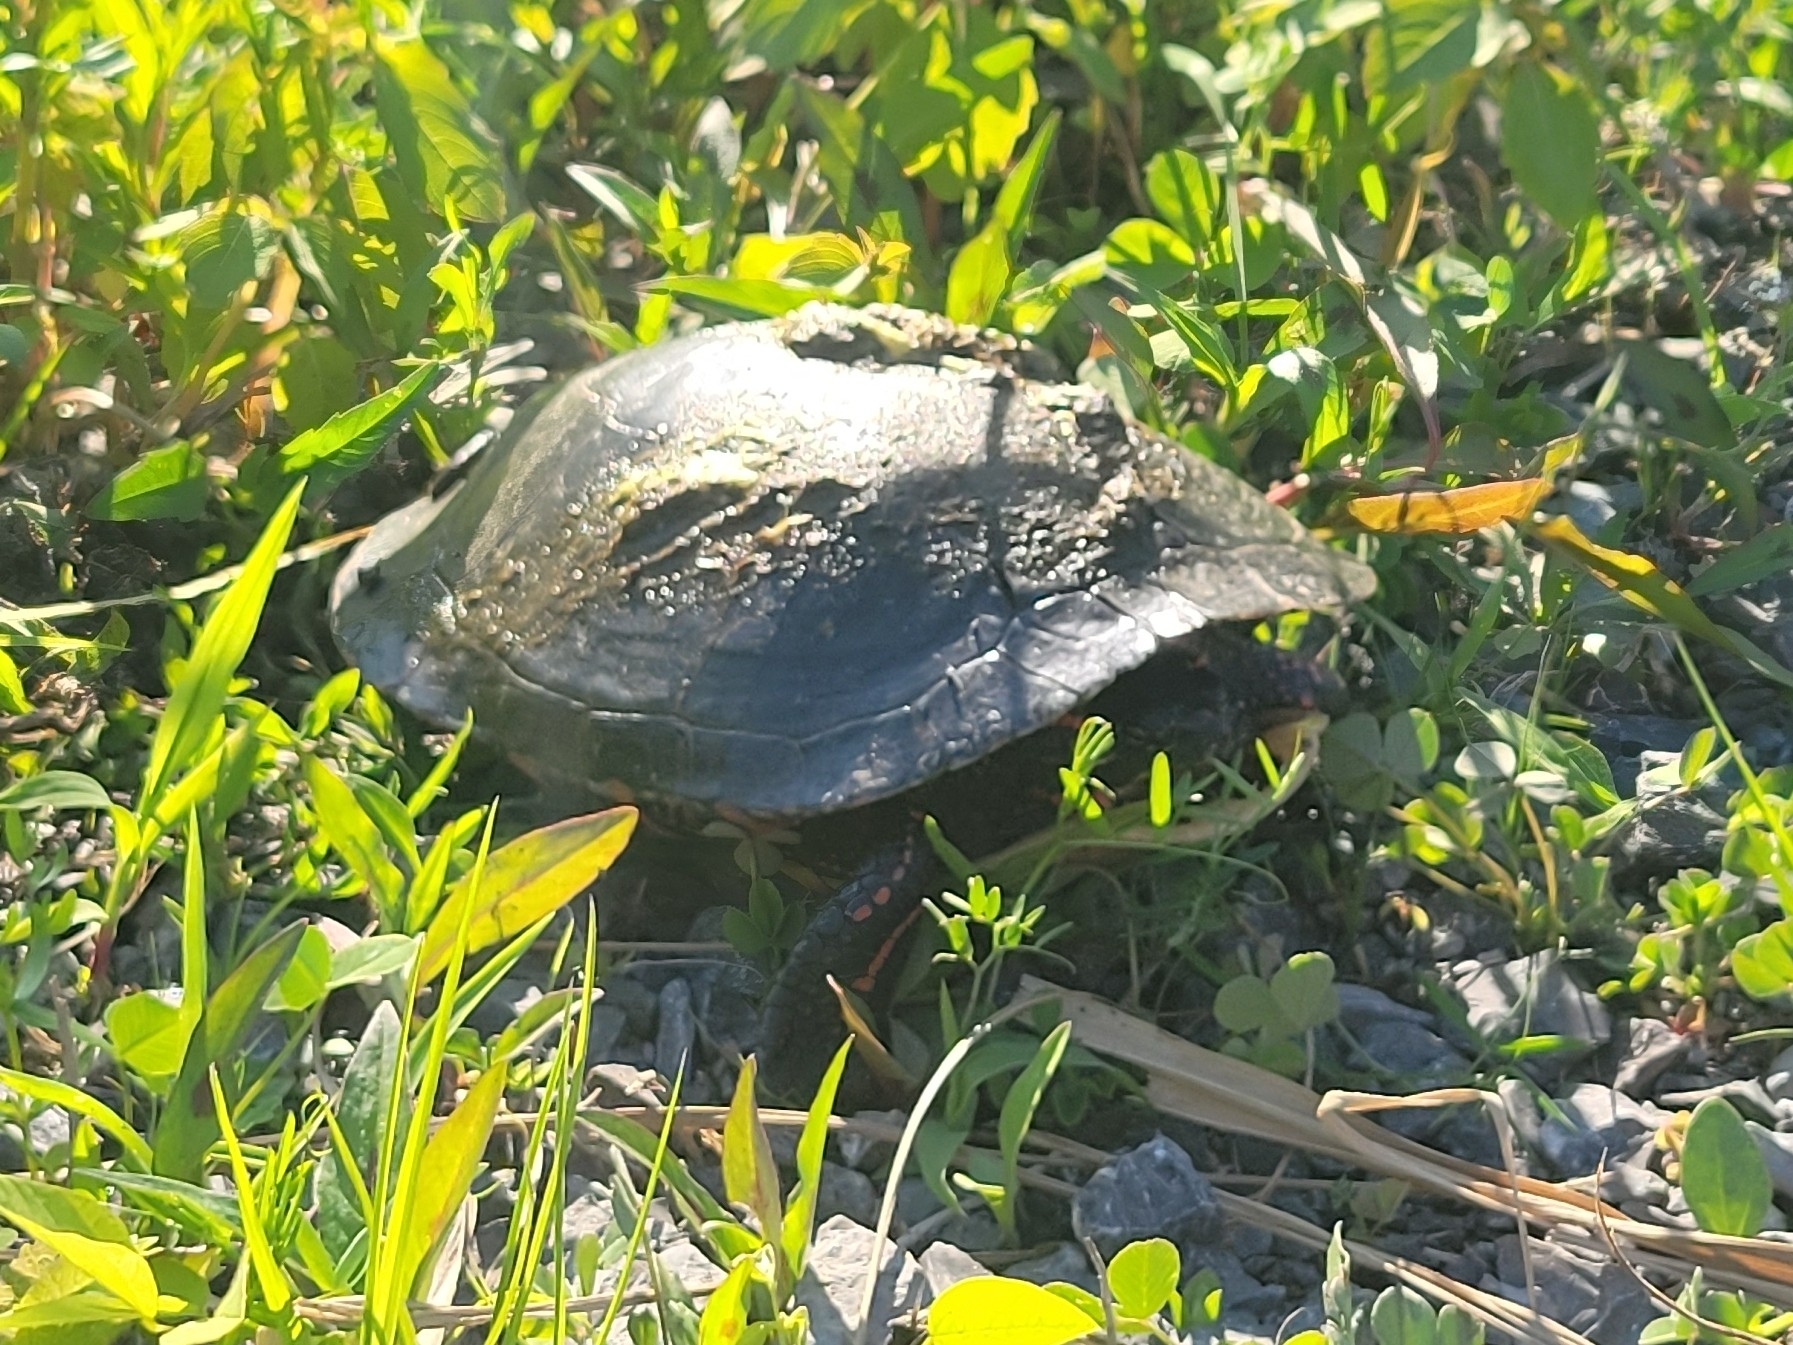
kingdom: Animalia
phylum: Chordata
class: Testudines
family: Emydidae
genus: Chrysemys
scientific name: Chrysemys picta
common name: Painted turtle
